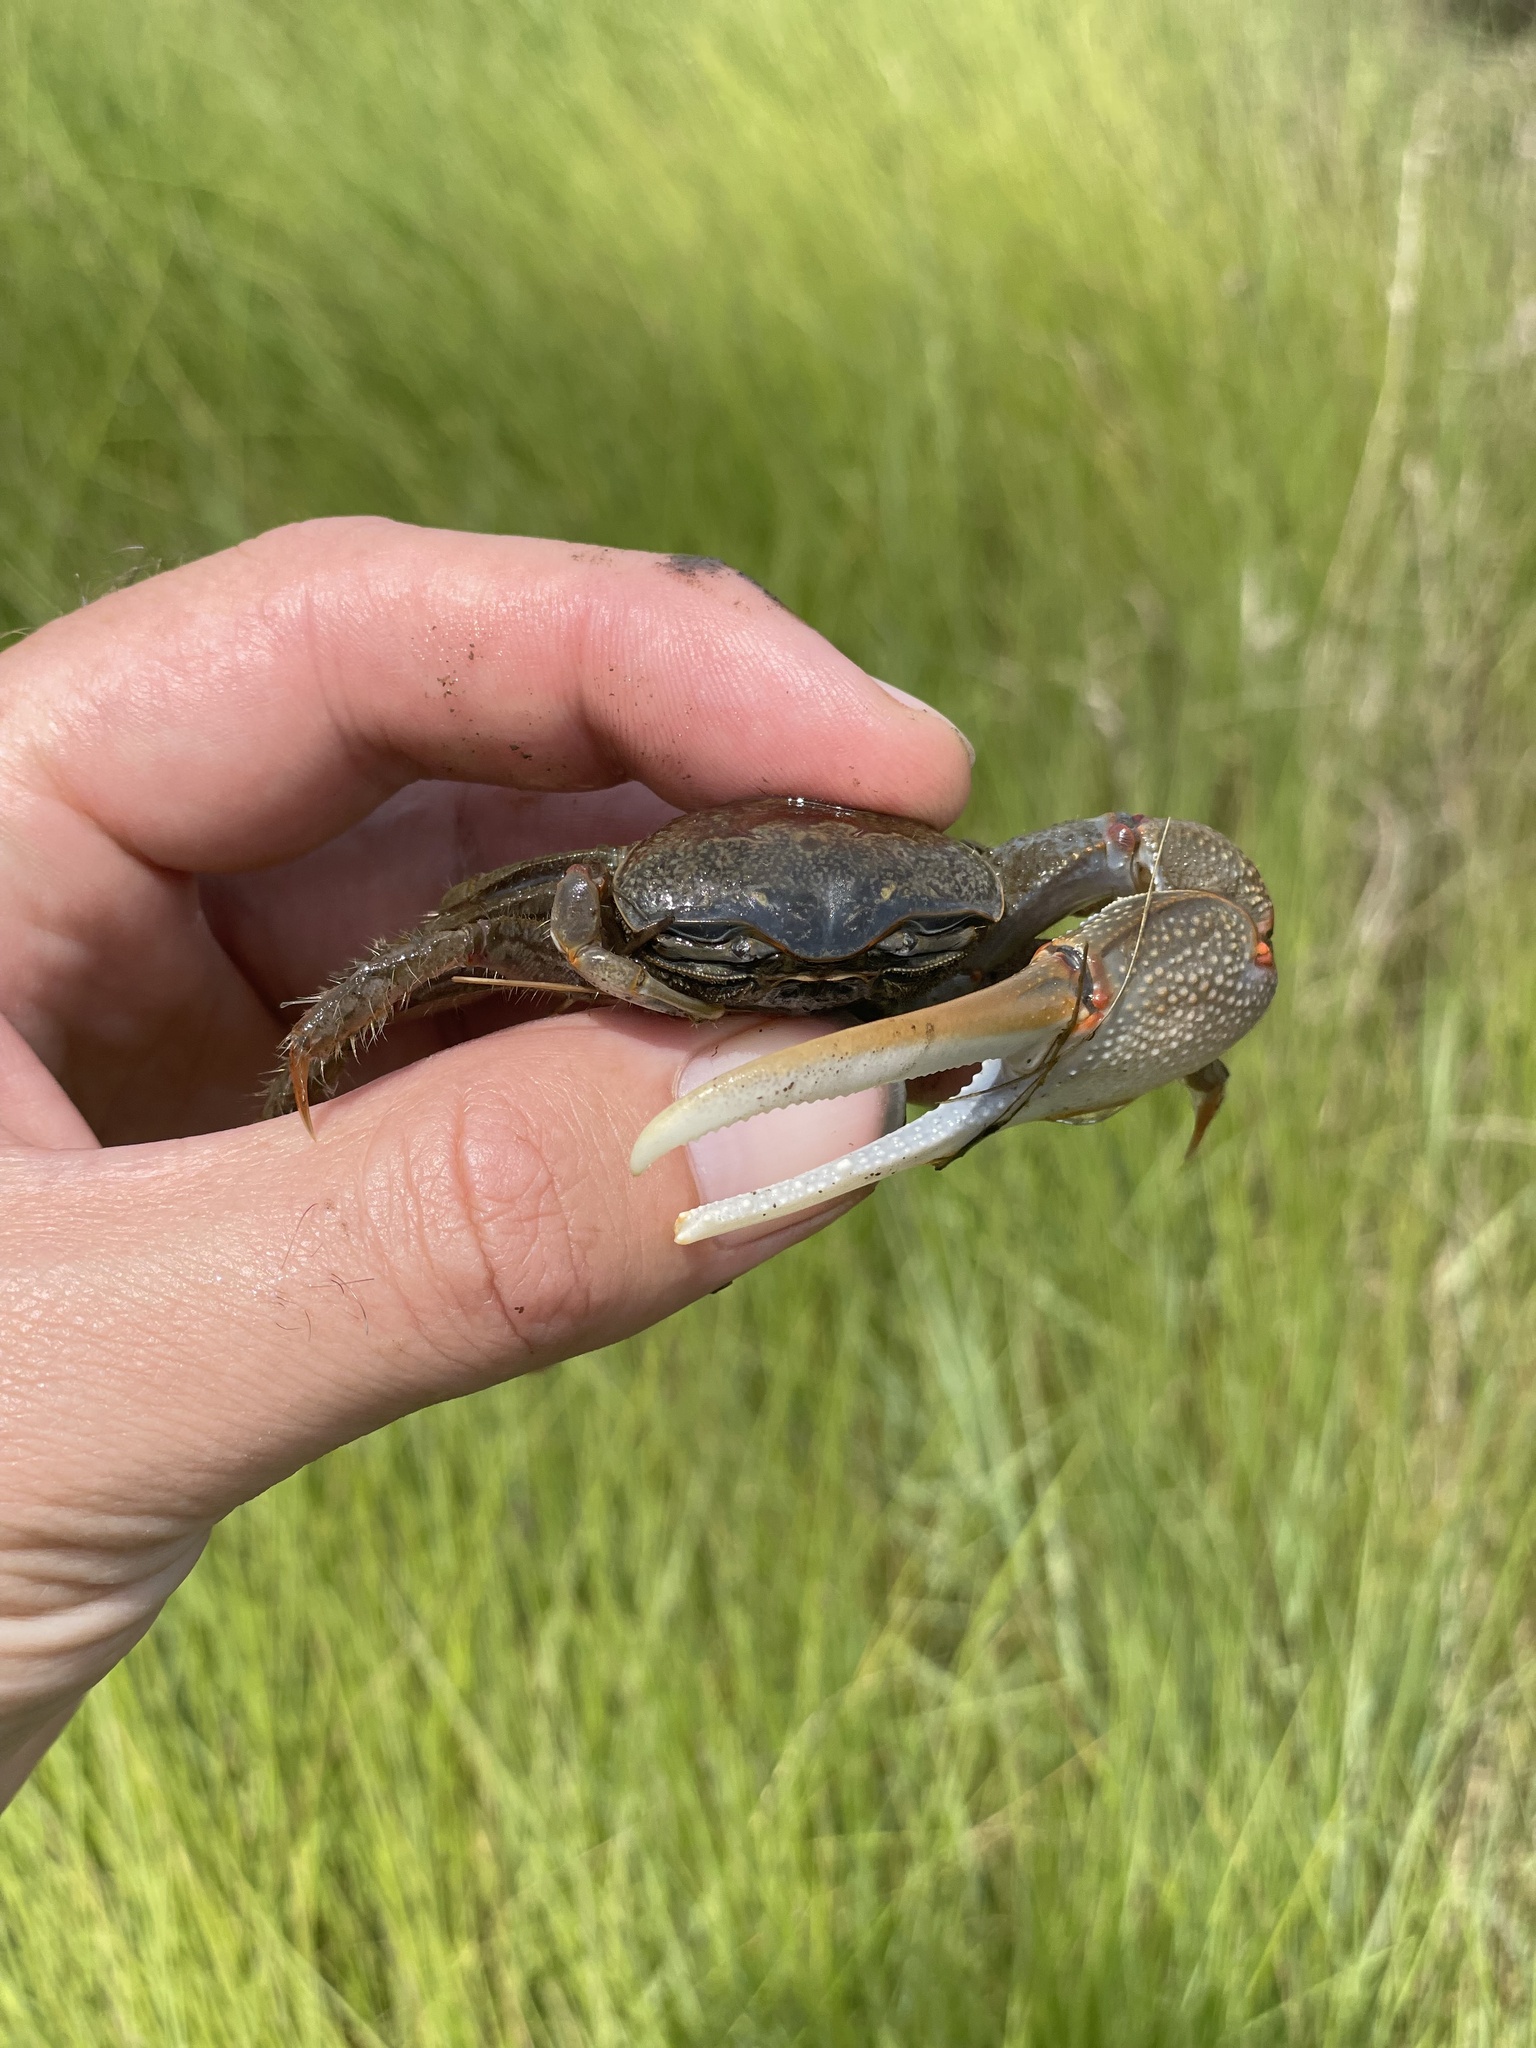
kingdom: Animalia
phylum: Arthropoda
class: Malacostraca
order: Decapoda
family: Ocypodidae
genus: Minuca
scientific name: Minuca minax
